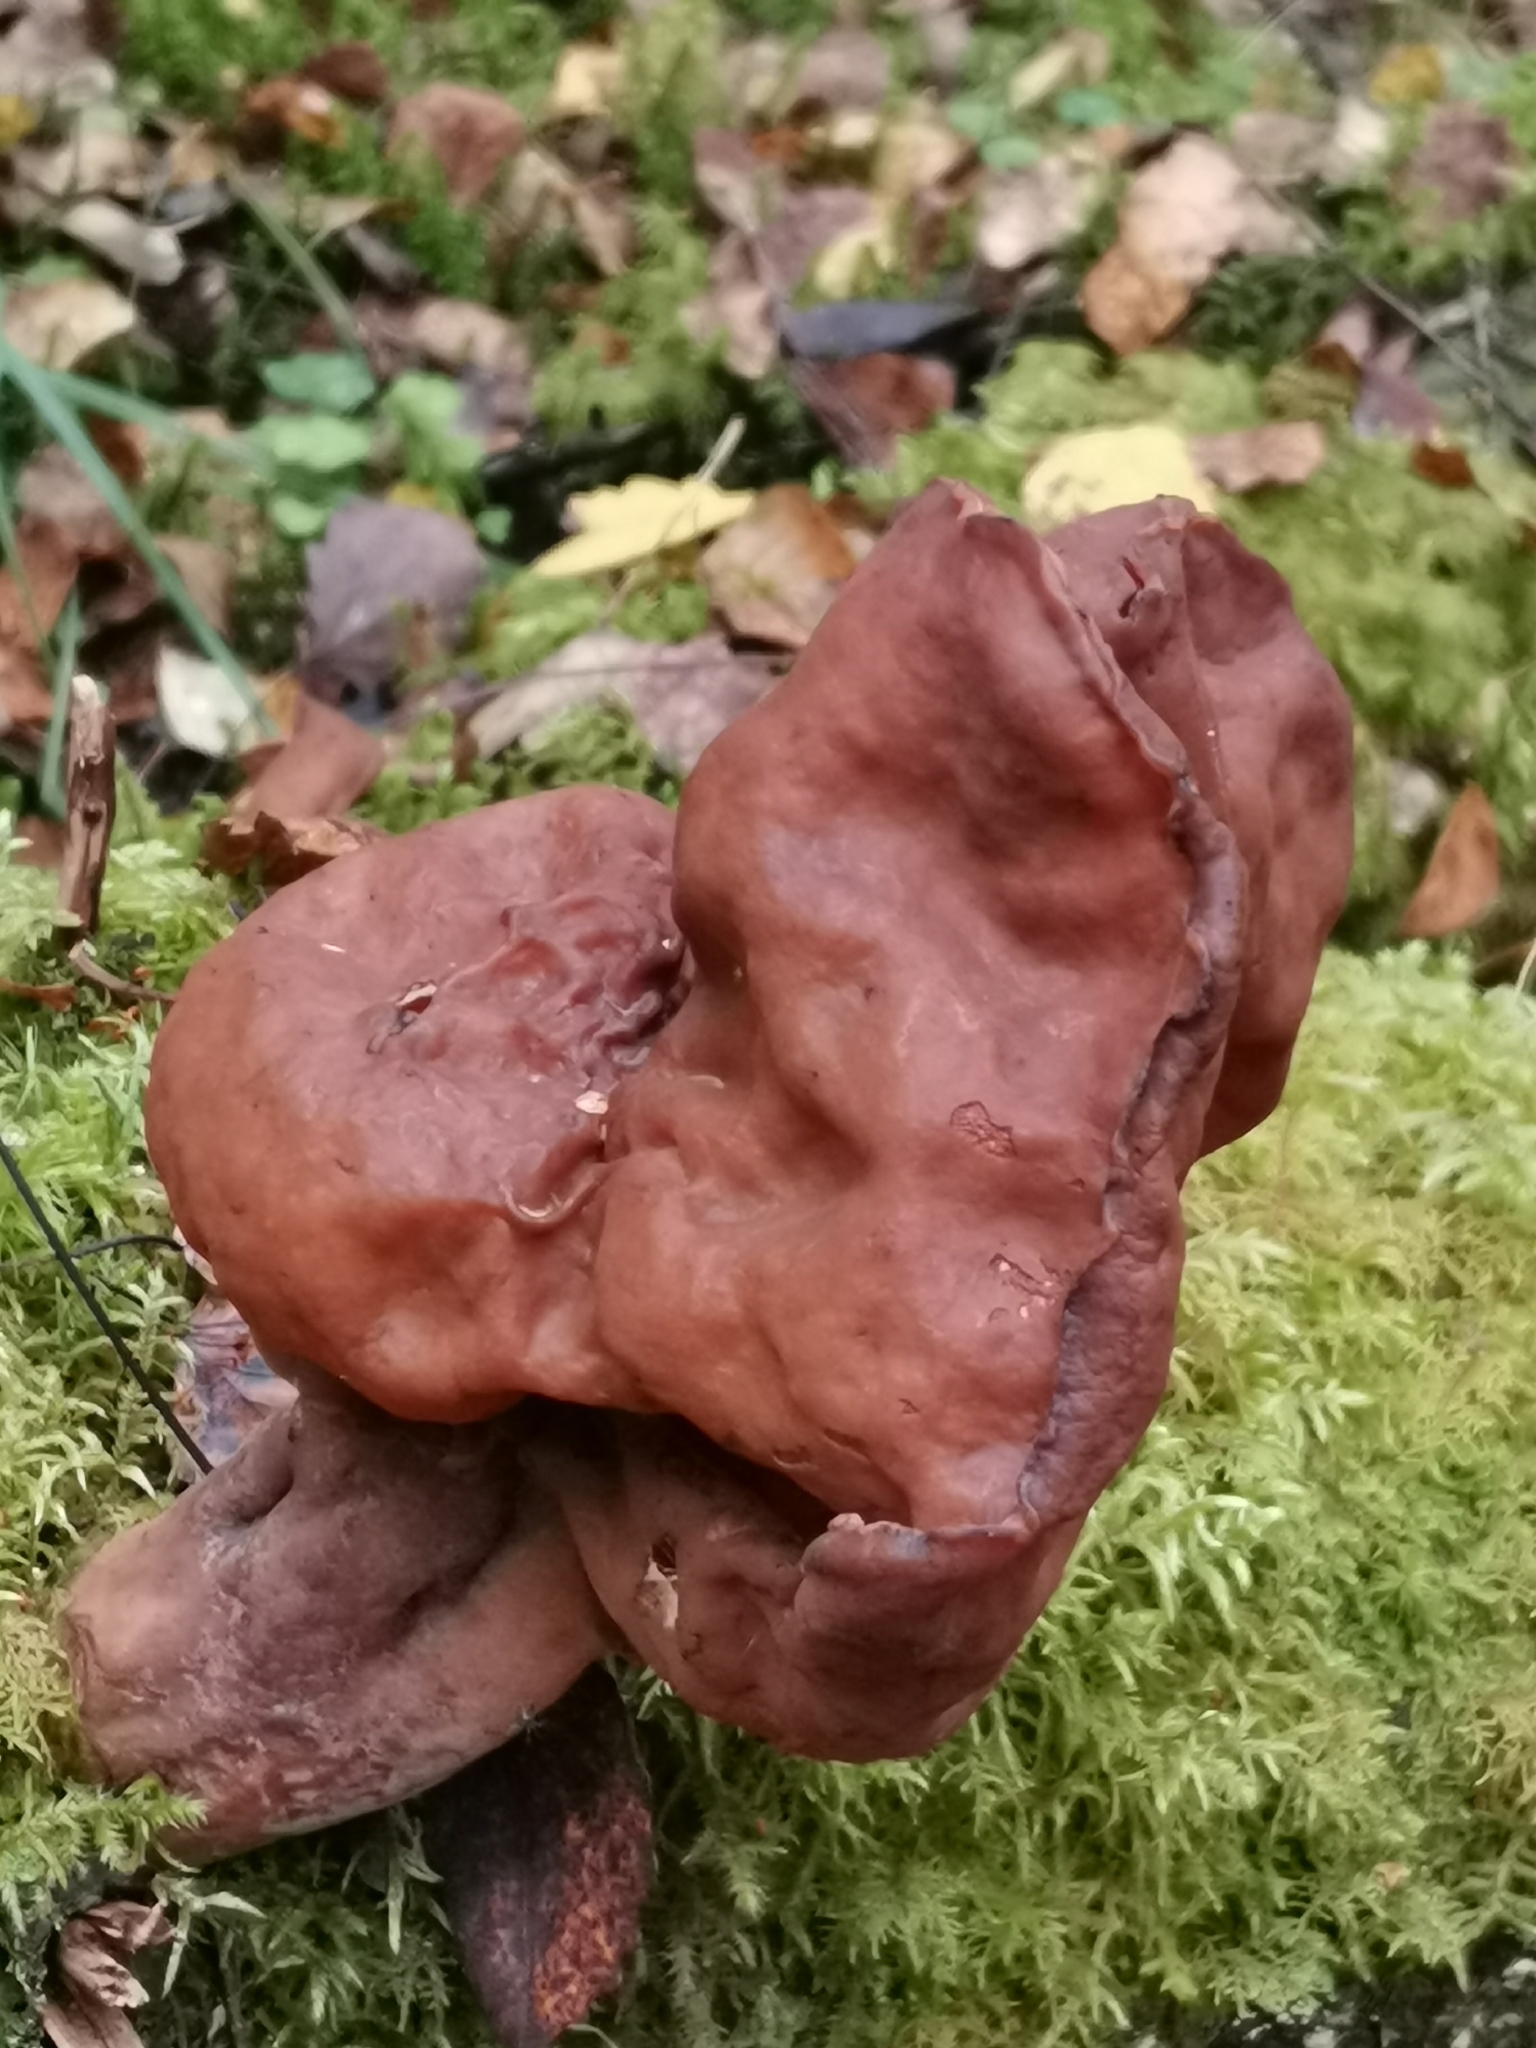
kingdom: Fungi
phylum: Ascomycota
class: Pezizomycetes
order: Pezizales
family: Discinaceae
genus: Gyromitra
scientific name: Gyromitra infula
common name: Pouched false morel
